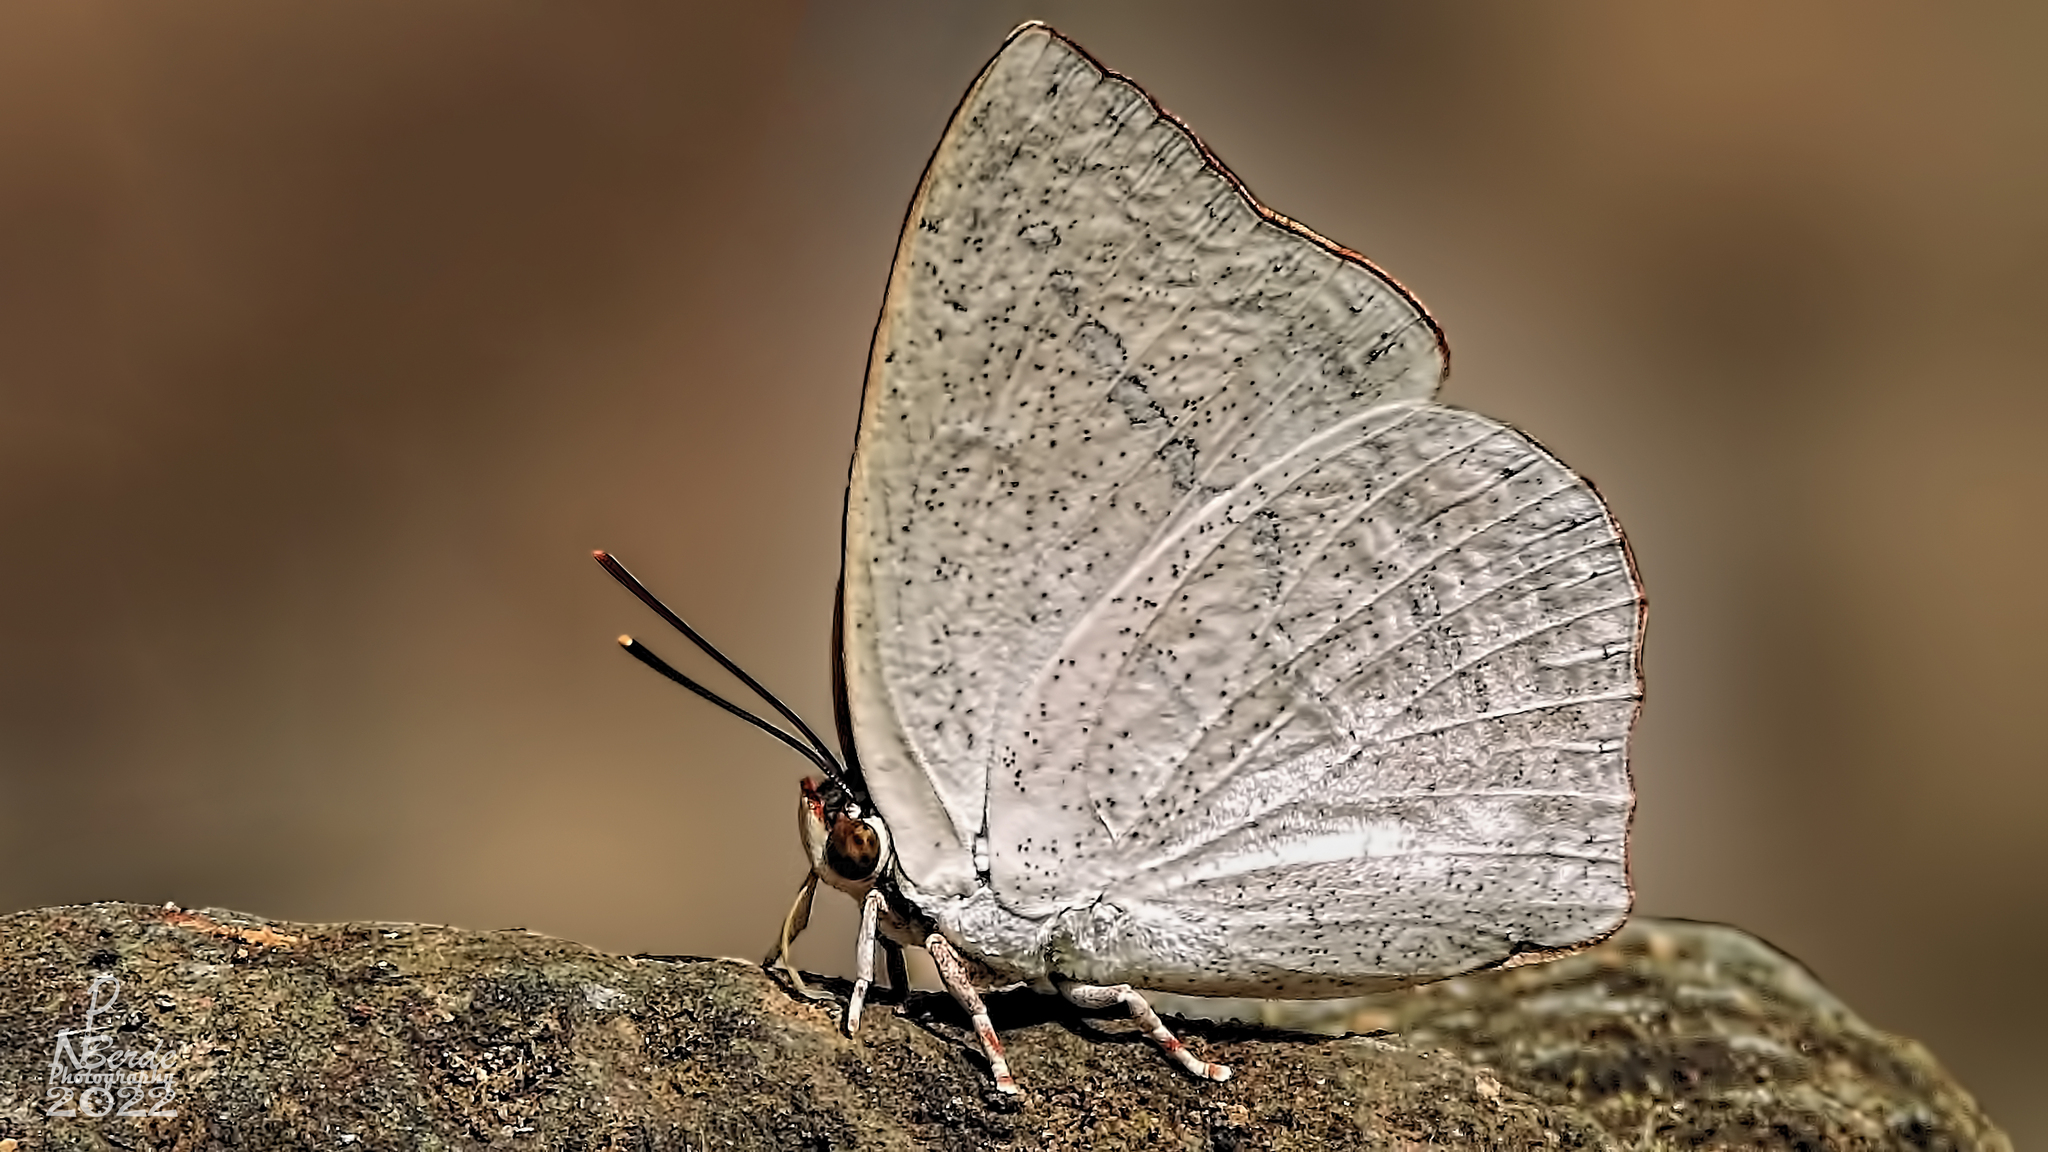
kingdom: Animalia
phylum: Arthropoda
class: Insecta
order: Lepidoptera
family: Lycaenidae
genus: Curetis
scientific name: Curetis acuta
